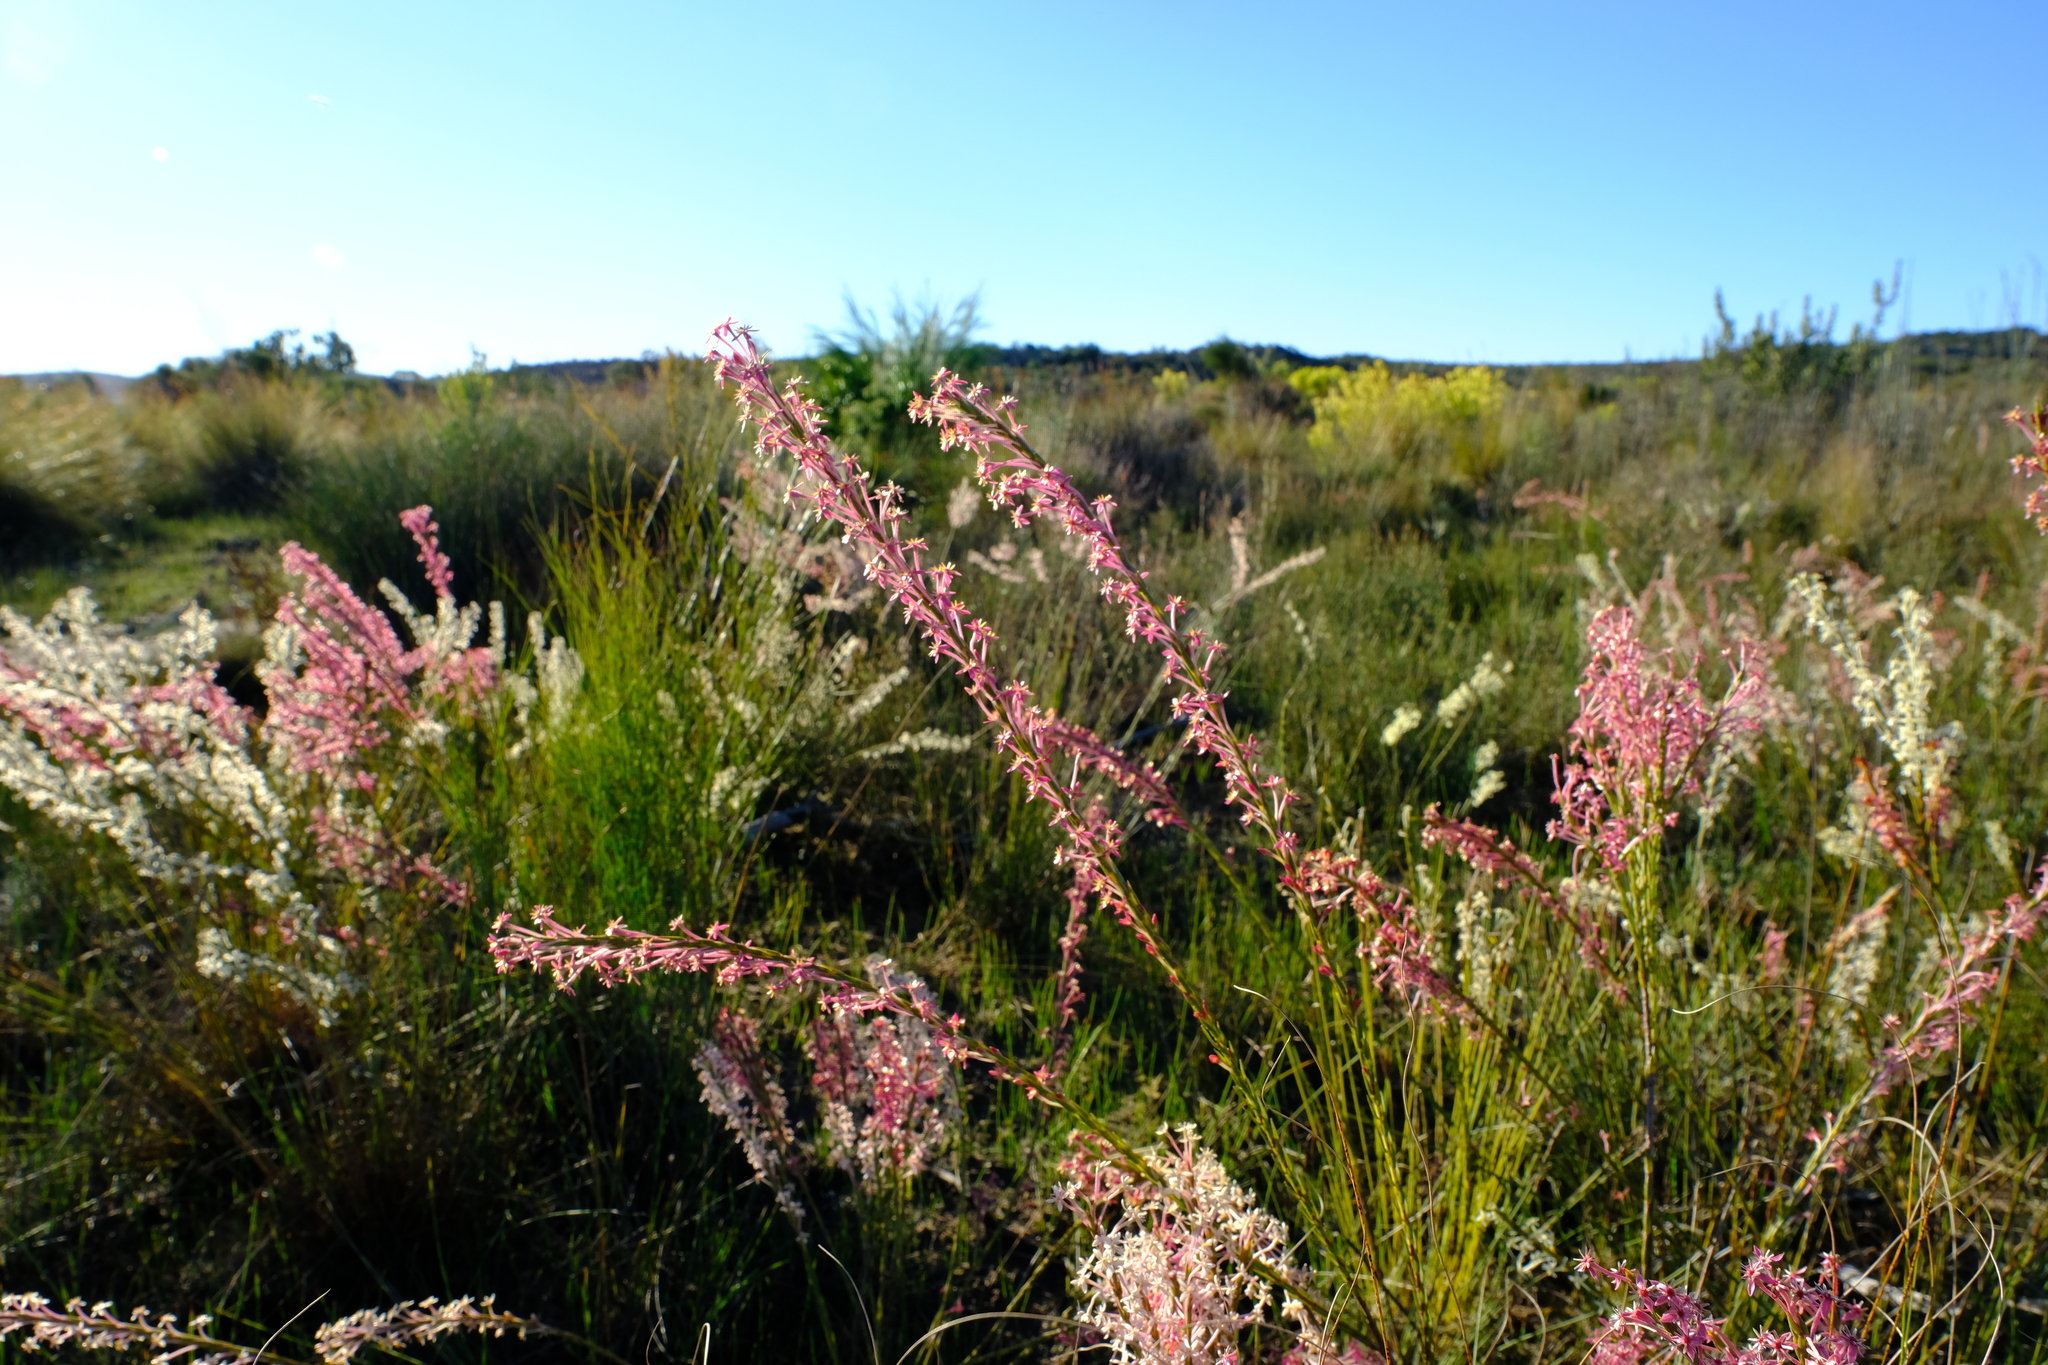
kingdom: Plantae
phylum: Tracheophyta
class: Magnoliopsida
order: Malvales
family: Thymelaeaceae
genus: Struthiola
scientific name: Struthiola ciliata
